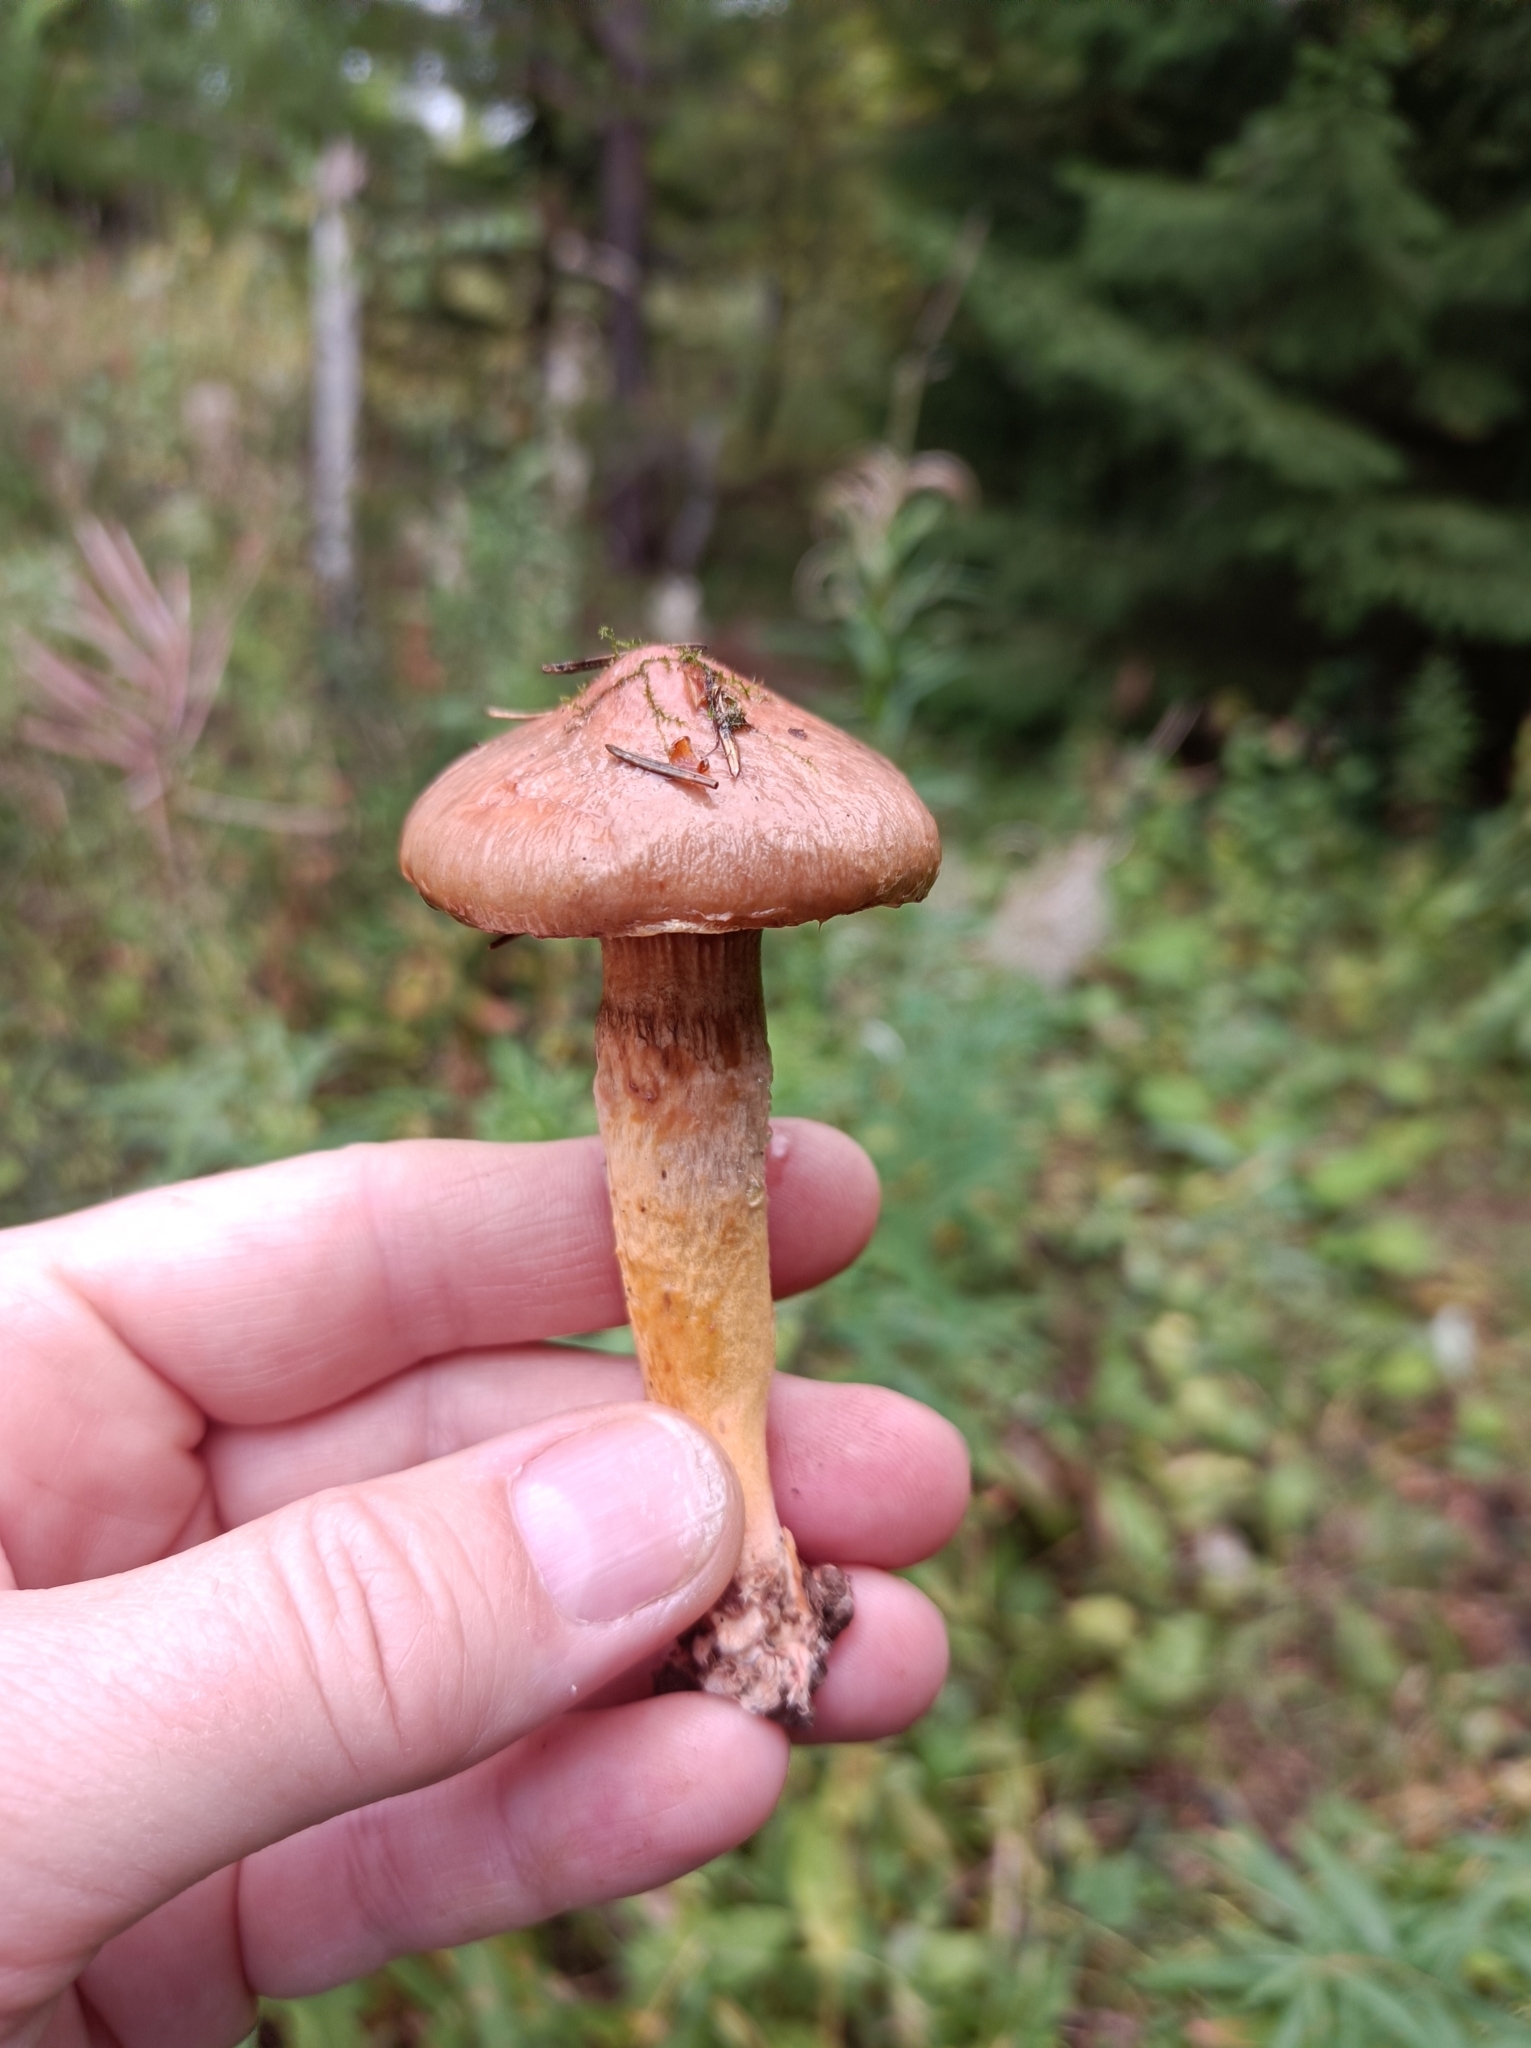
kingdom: Fungi
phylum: Basidiomycota
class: Agaricomycetes
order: Boletales
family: Gomphidiaceae
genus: Chroogomphus
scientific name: Chroogomphus rutilus
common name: Copper spike
